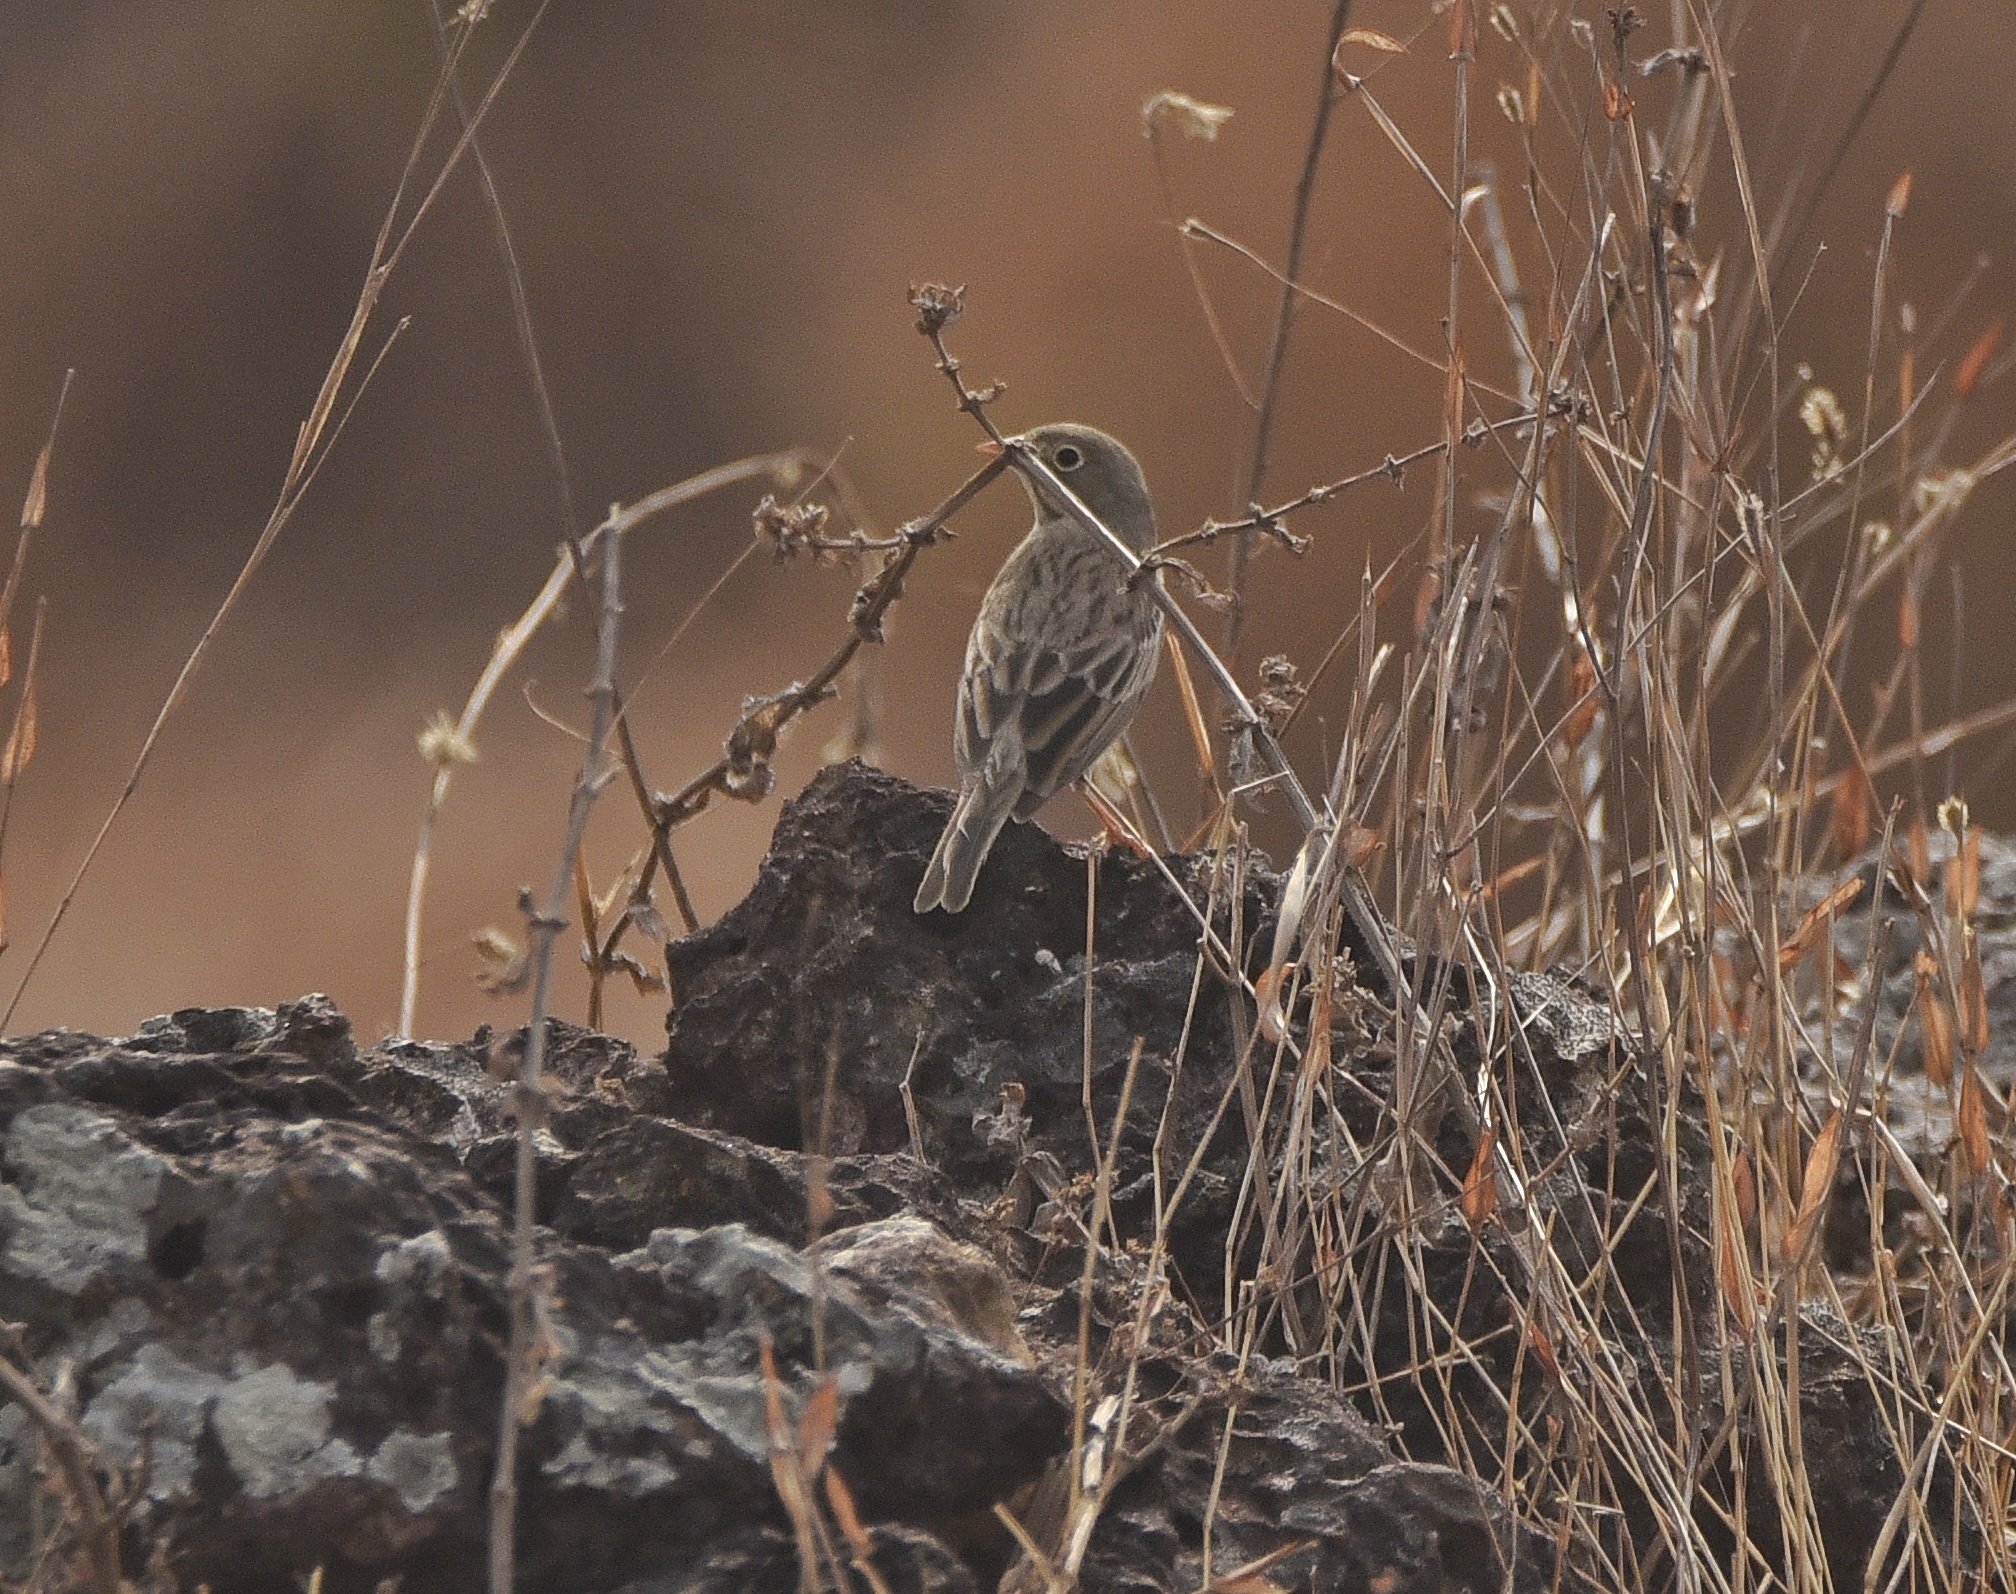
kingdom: Animalia
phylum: Chordata
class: Aves
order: Passeriformes
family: Emberizidae
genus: Emberiza
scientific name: Emberiza buchanani
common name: Grey-necked bunting
